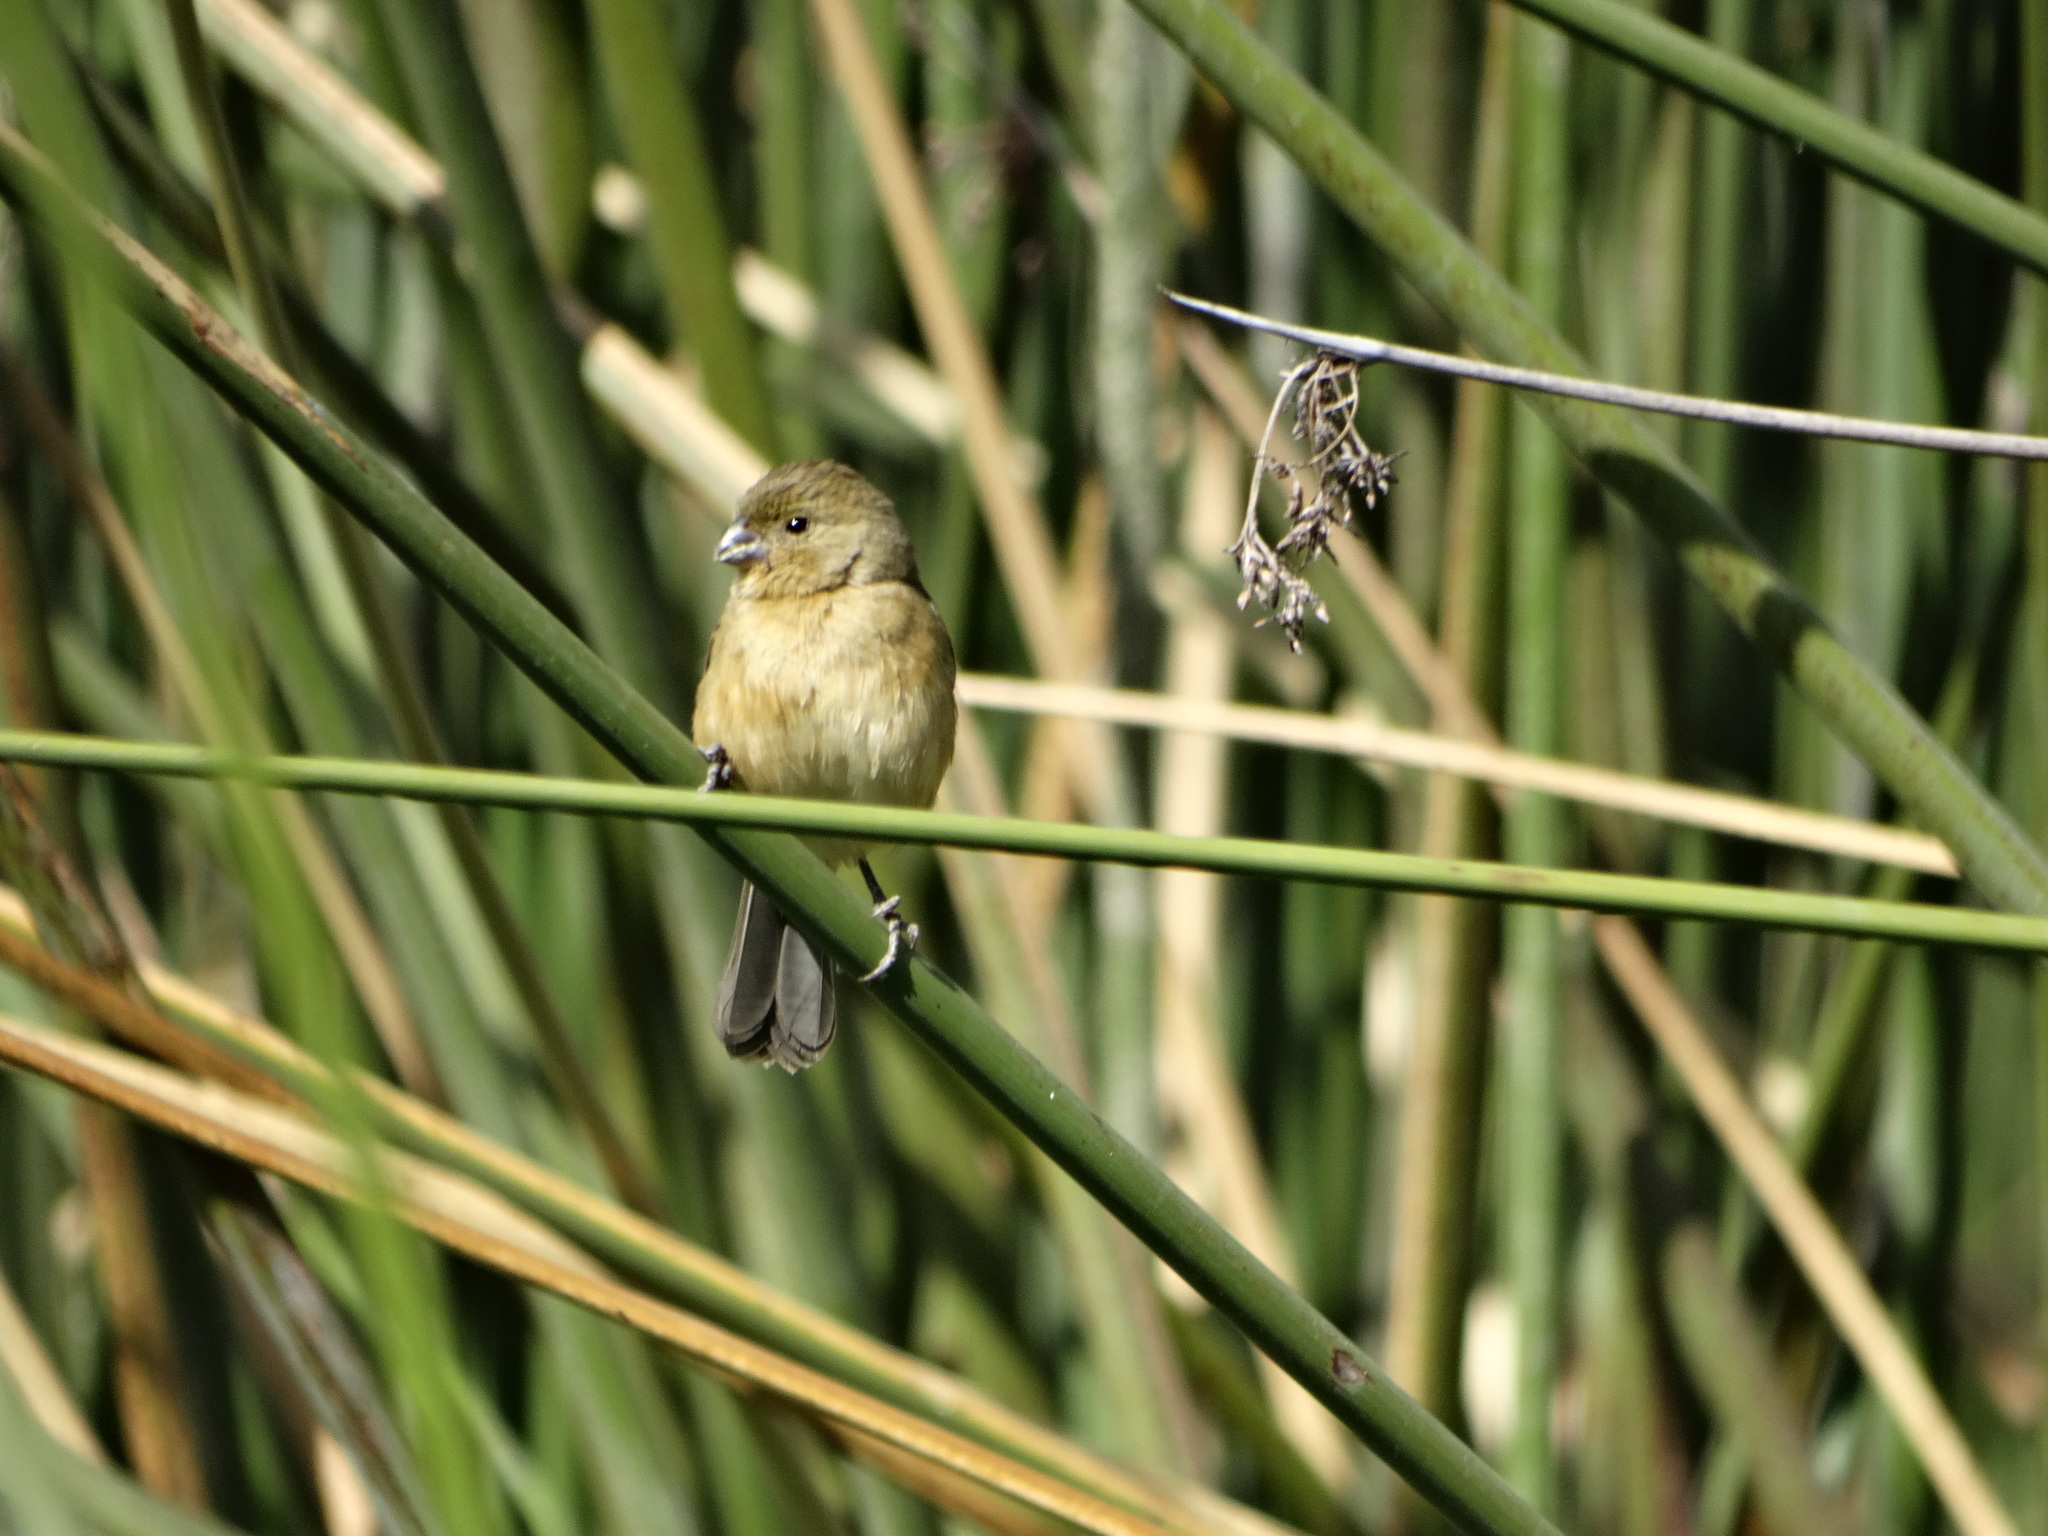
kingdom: Animalia
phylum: Chordata
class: Aves
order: Passeriformes
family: Thraupidae
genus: Sporophila
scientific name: Sporophila torqueola
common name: White-collared seedeater
